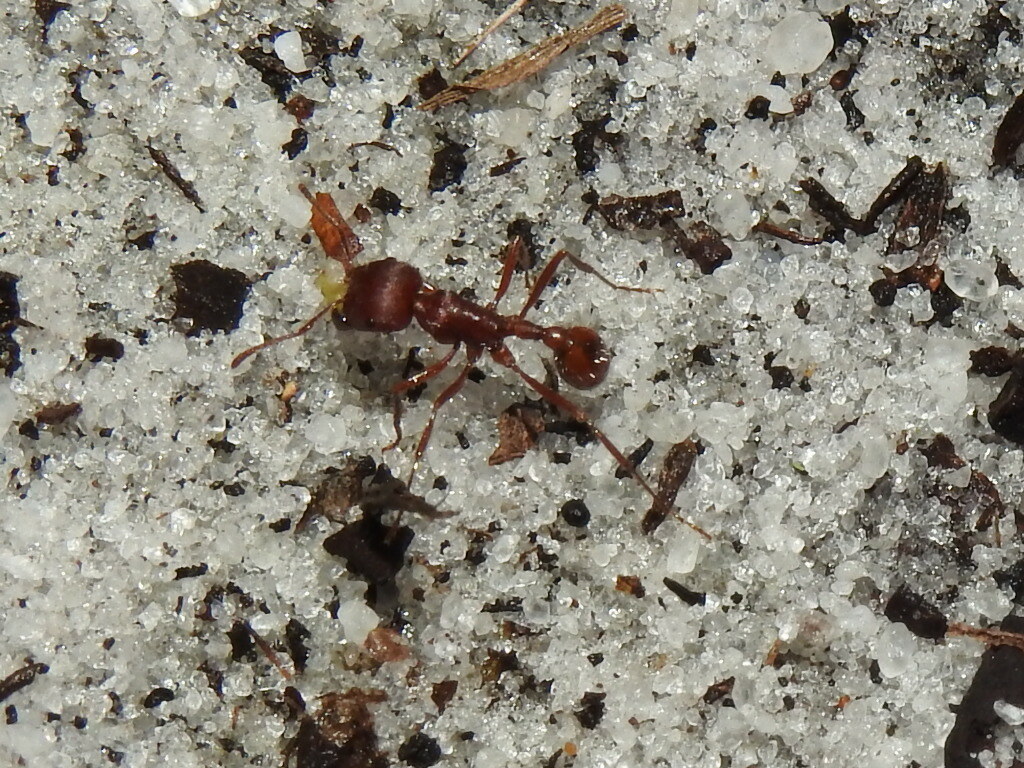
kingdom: Animalia
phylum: Arthropoda
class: Insecta
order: Hymenoptera
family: Formicidae
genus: Pogonomyrmex
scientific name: Pogonomyrmex badius
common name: Florida harvester ant
